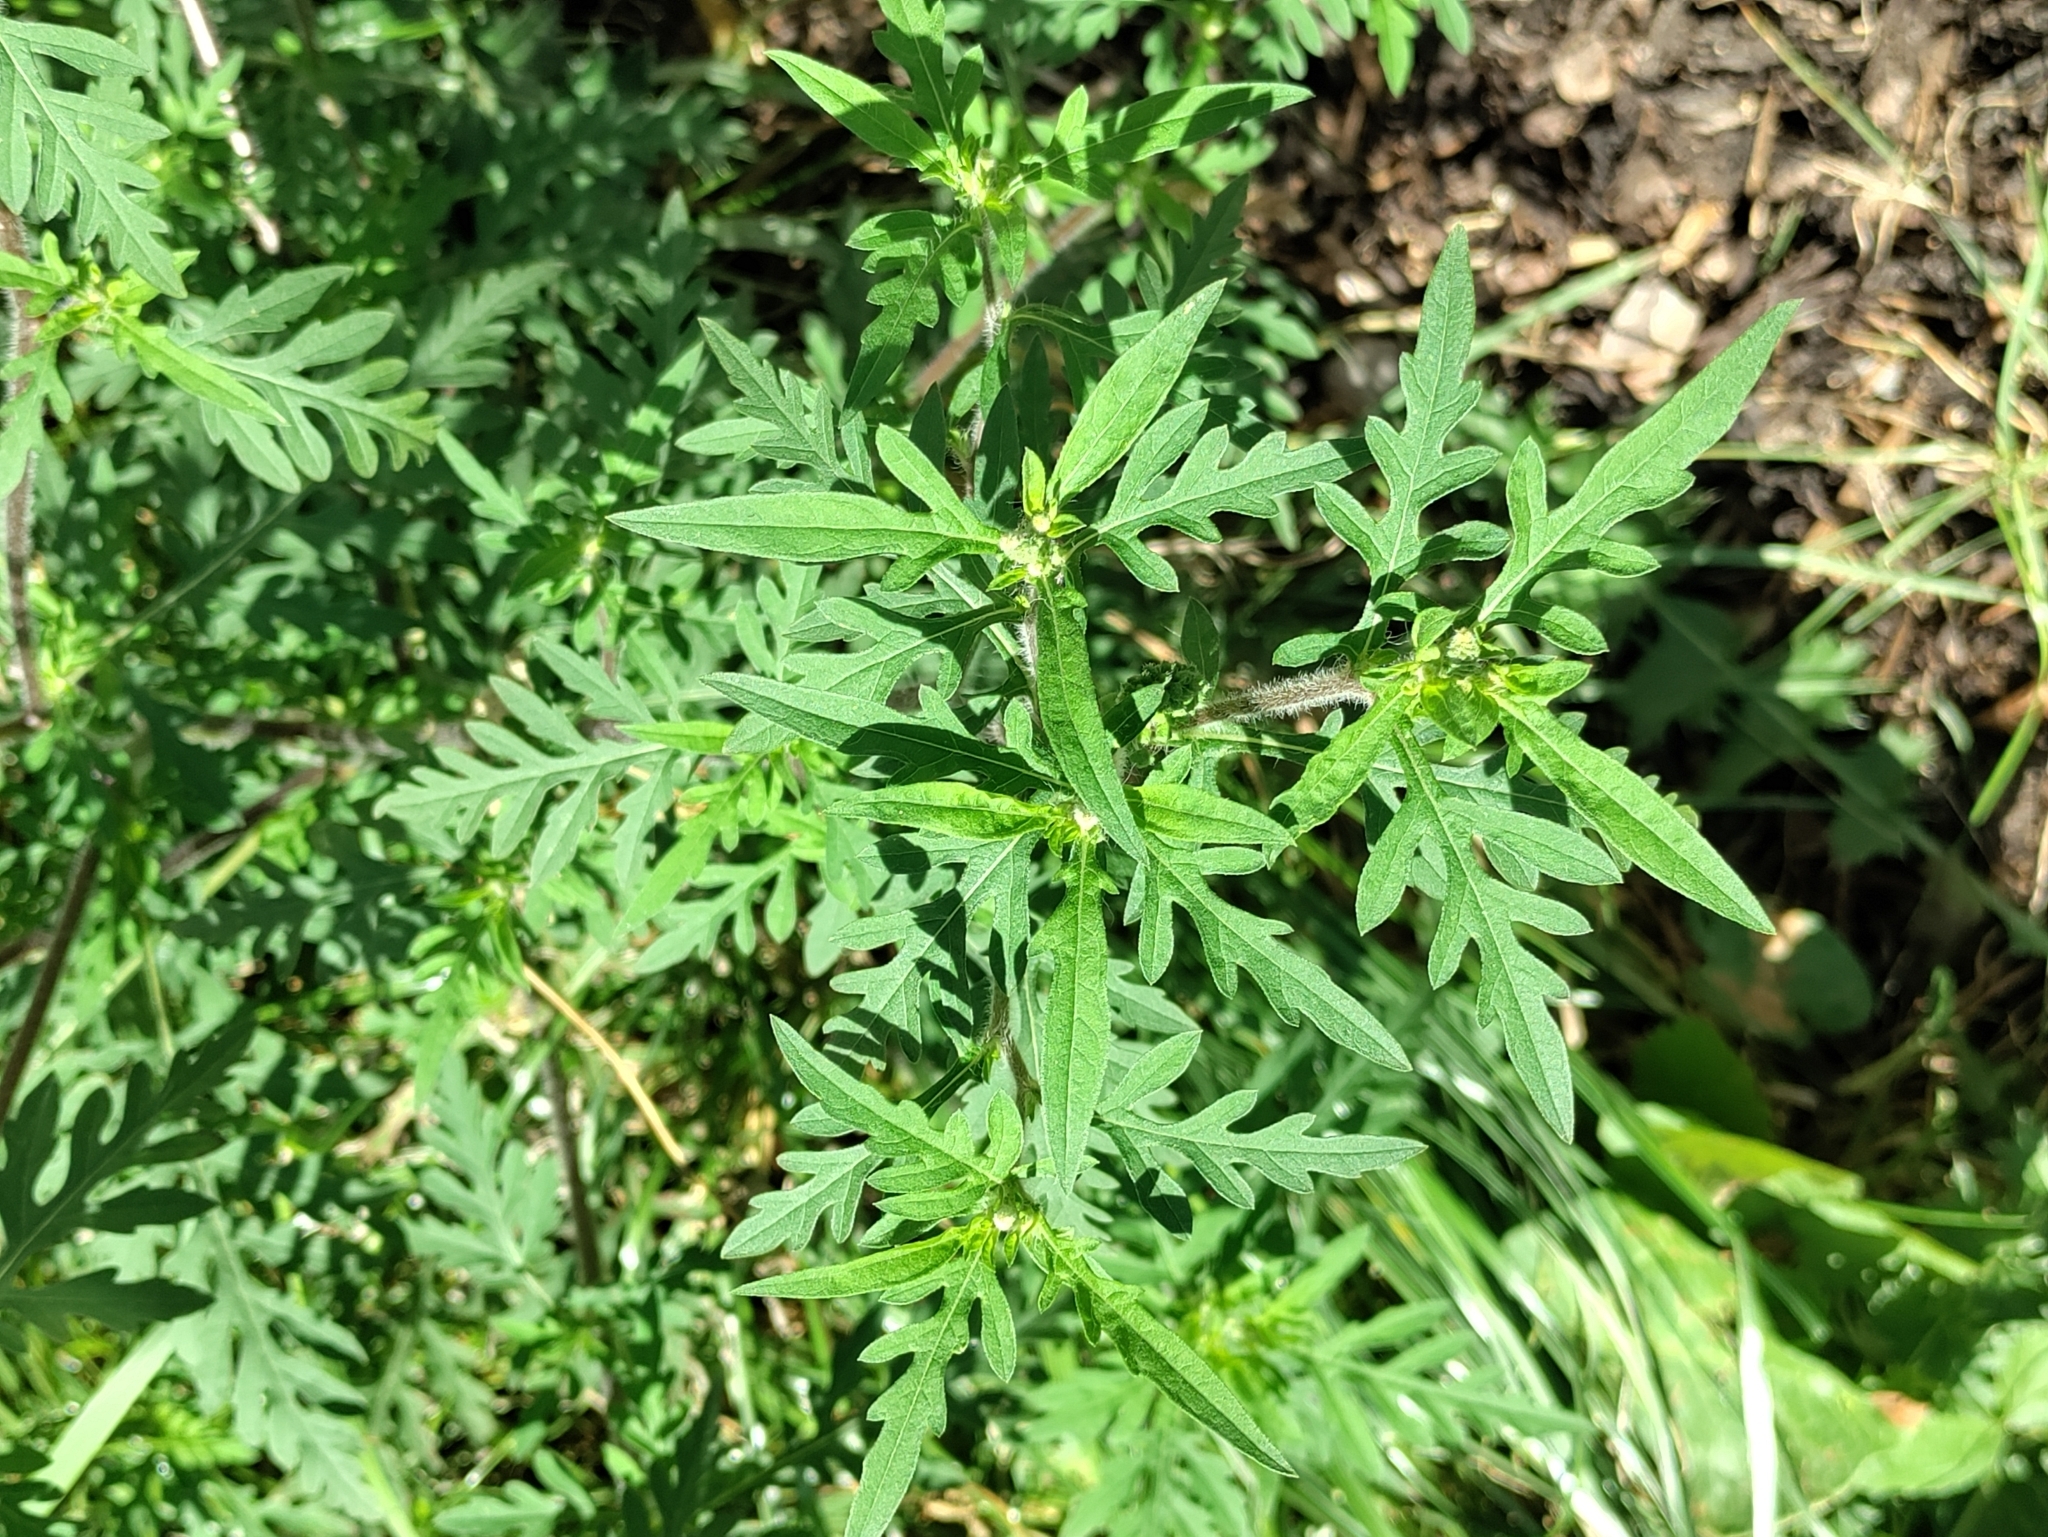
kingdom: Plantae
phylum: Tracheophyta
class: Magnoliopsida
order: Asterales
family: Asteraceae
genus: Ambrosia
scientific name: Ambrosia artemisiifolia
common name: Annual ragweed
